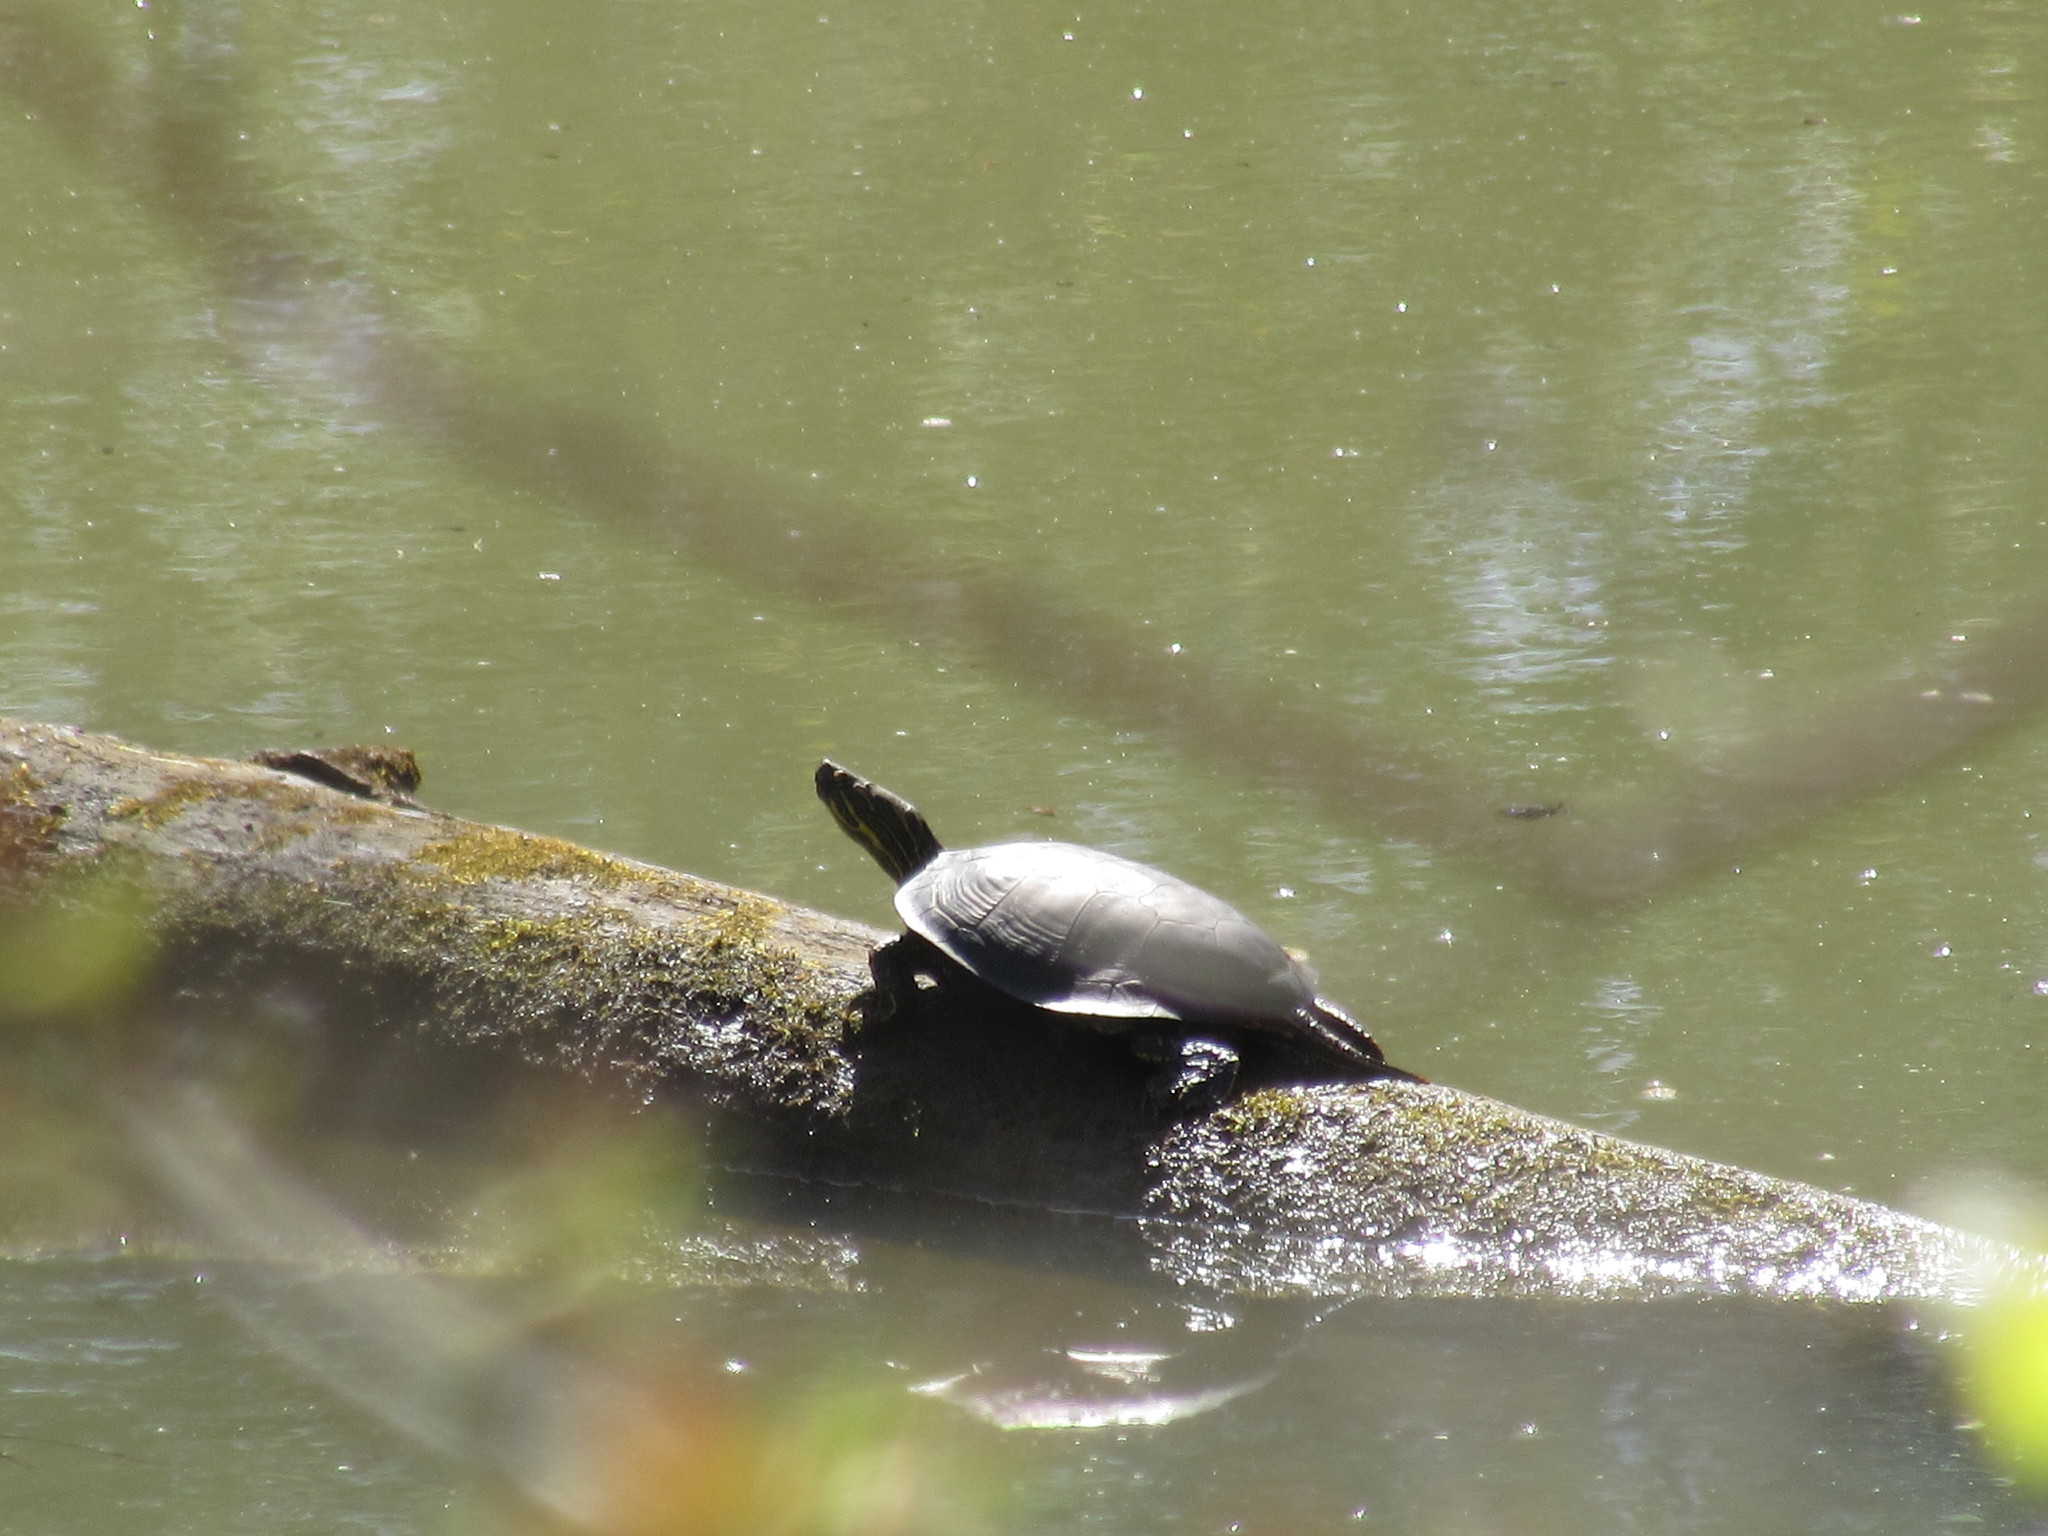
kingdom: Animalia
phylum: Chordata
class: Testudines
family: Emydidae
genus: Chrysemys
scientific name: Chrysemys picta
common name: Painted turtle
